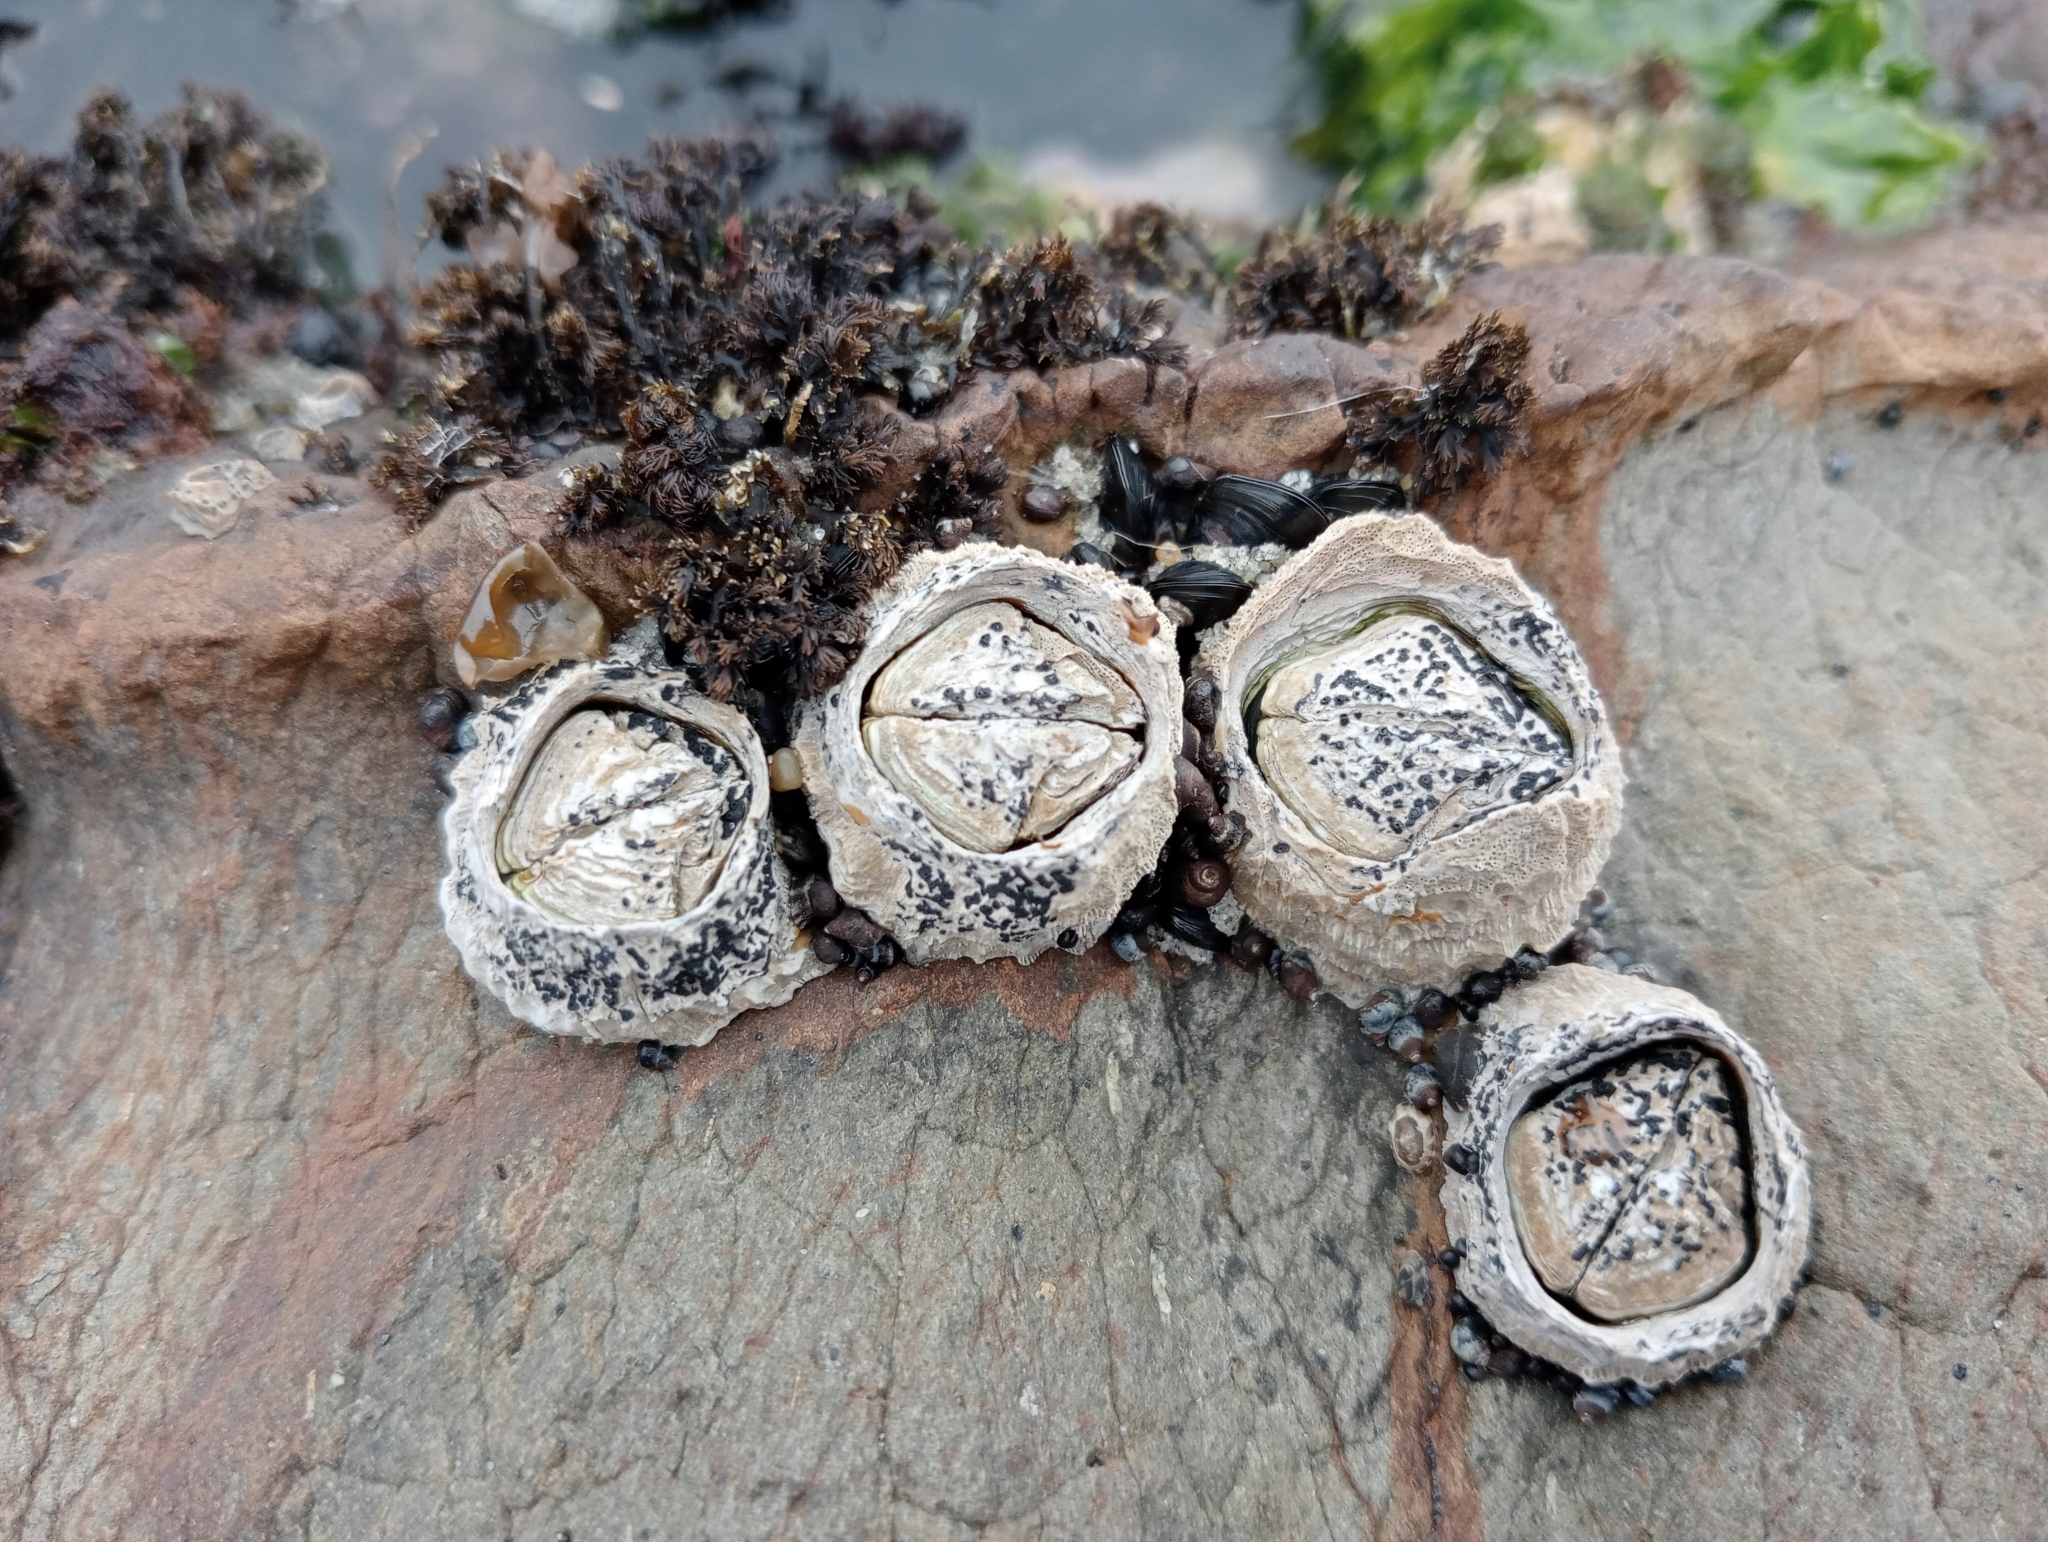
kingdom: Animalia
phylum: Arthropoda
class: Maxillopoda
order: Sessilia
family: Tetraclitidae
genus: Epopella
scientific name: Epopella plicata
